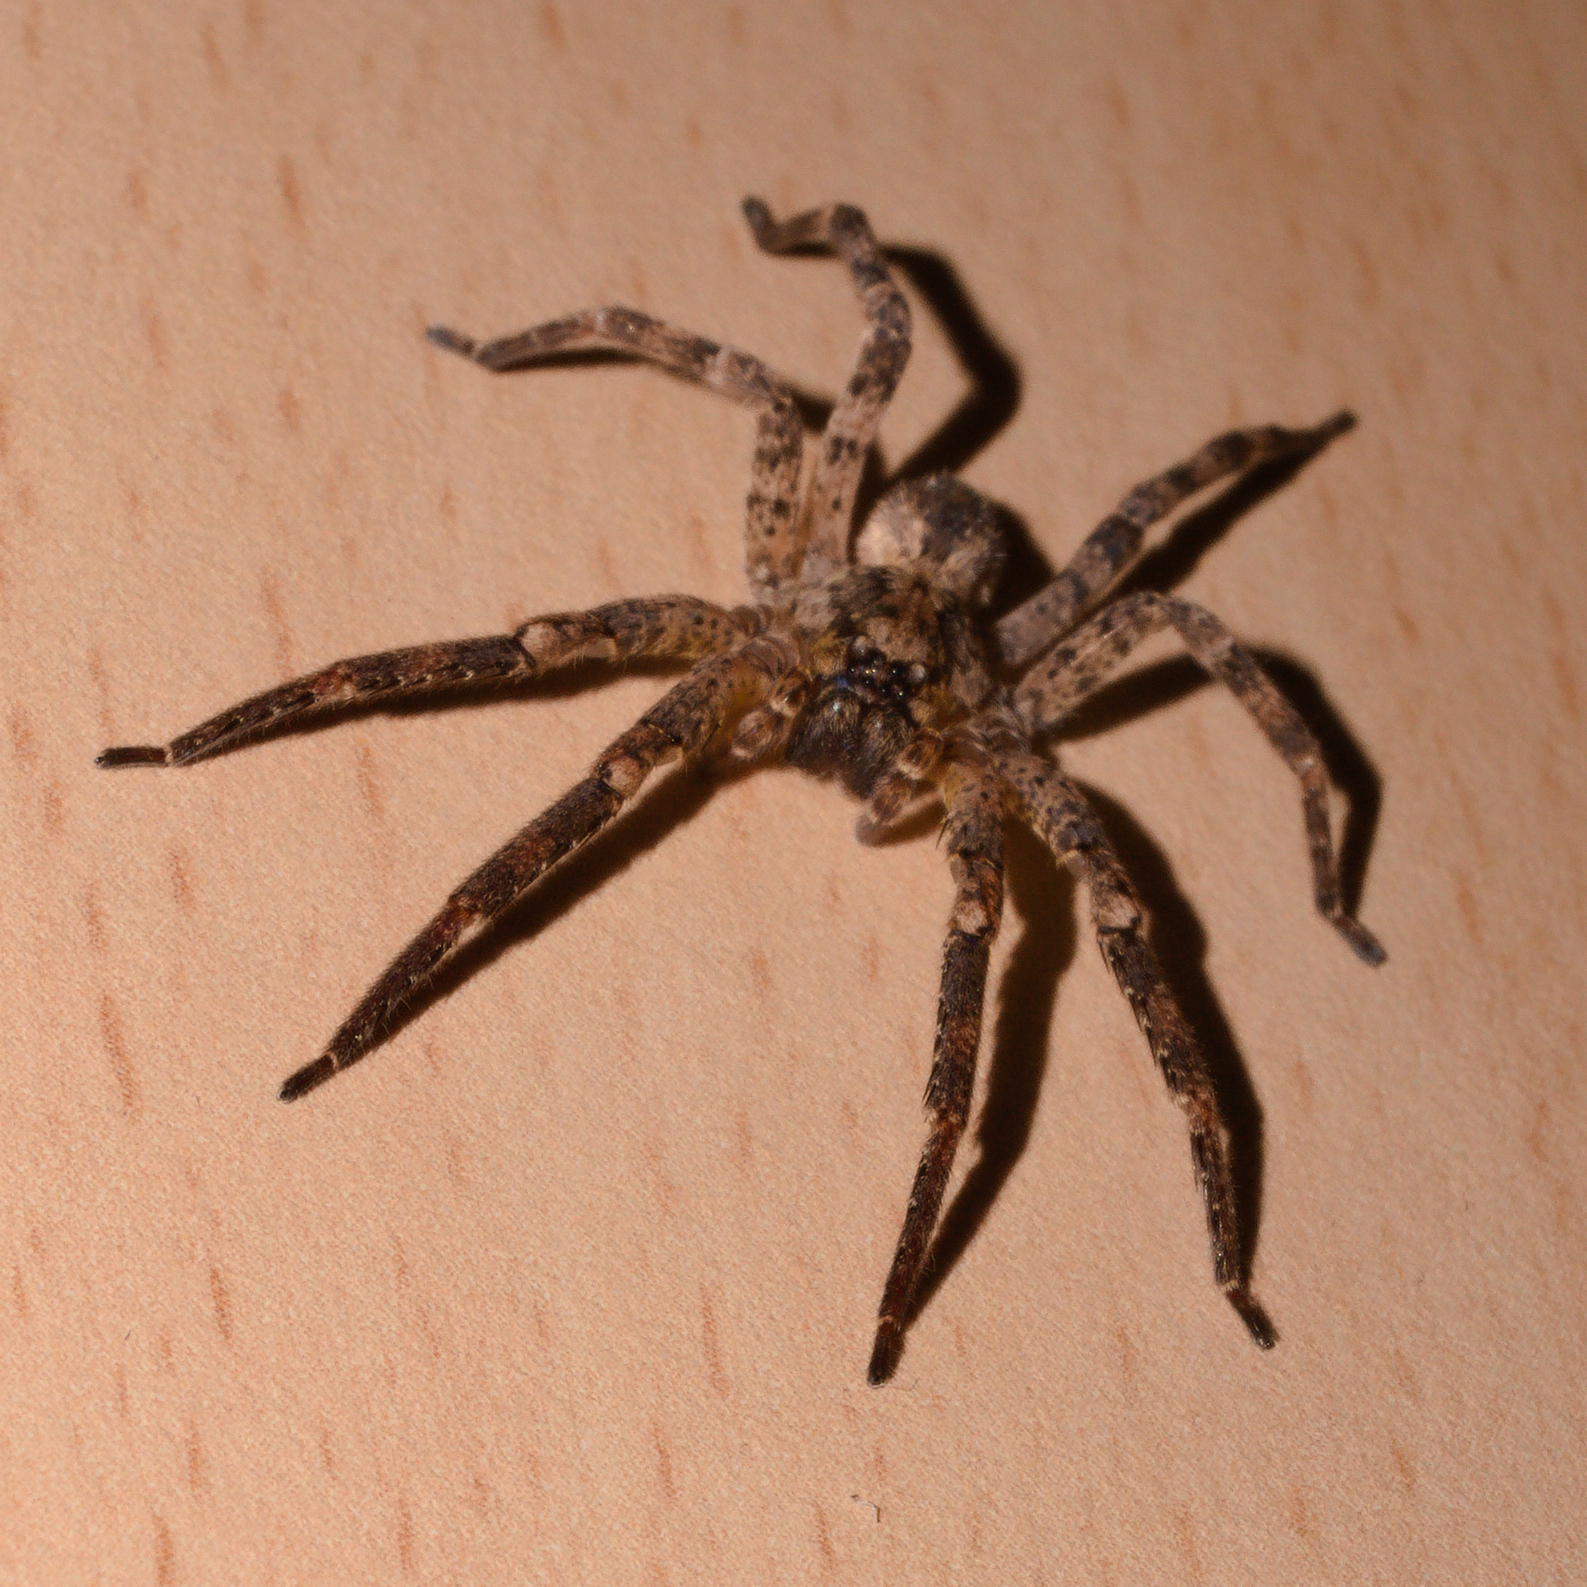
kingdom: Animalia
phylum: Arthropoda
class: Arachnida
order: Araneae
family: Zoropsidae
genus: Zoropsis
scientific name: Zoropsis spinimana
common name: Zoropsid spider
